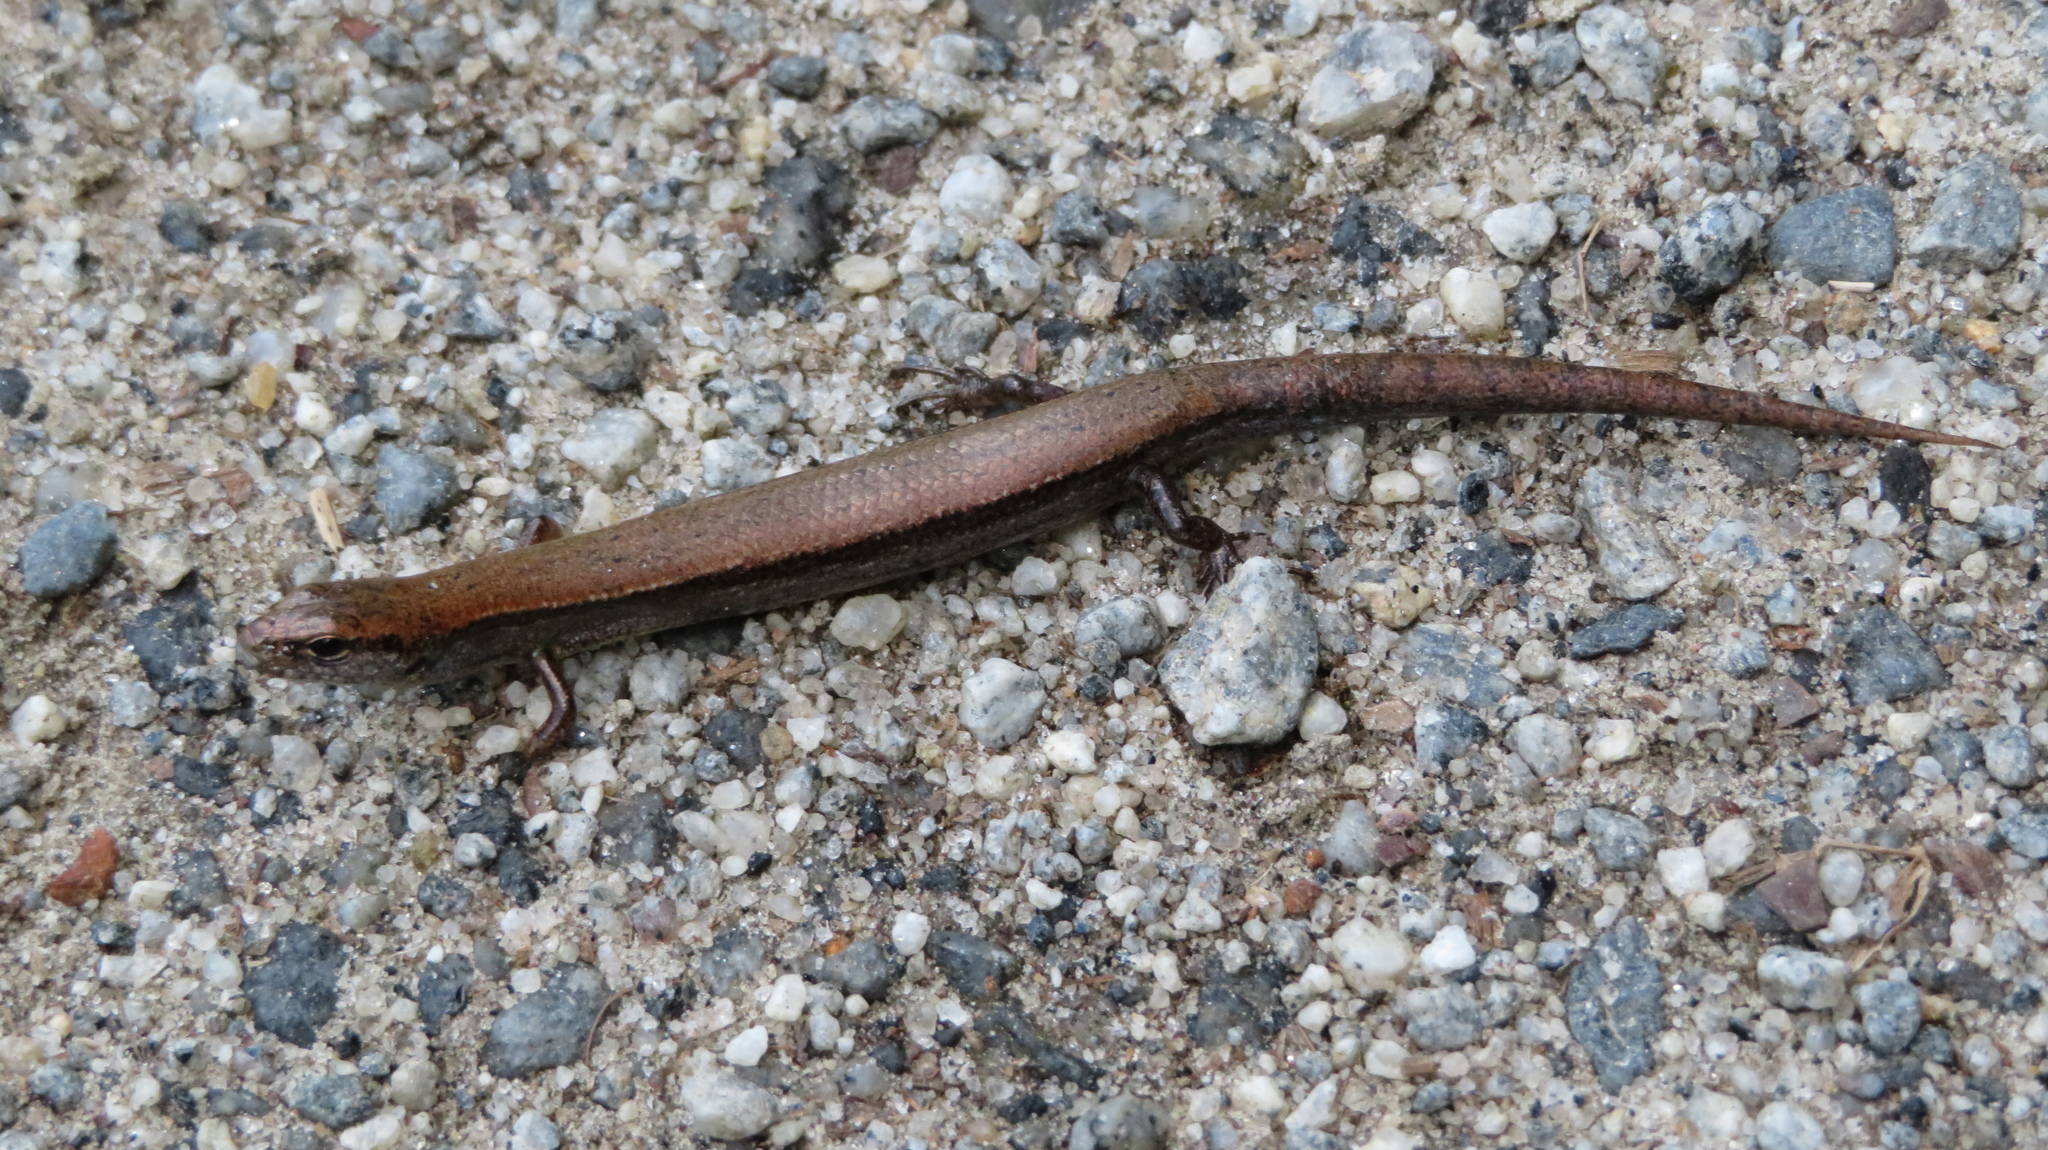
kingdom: Animalia
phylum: Chordata
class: Squamata
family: Scincidae
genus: Scincella
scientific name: Scincella lateralis
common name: Ground skink
